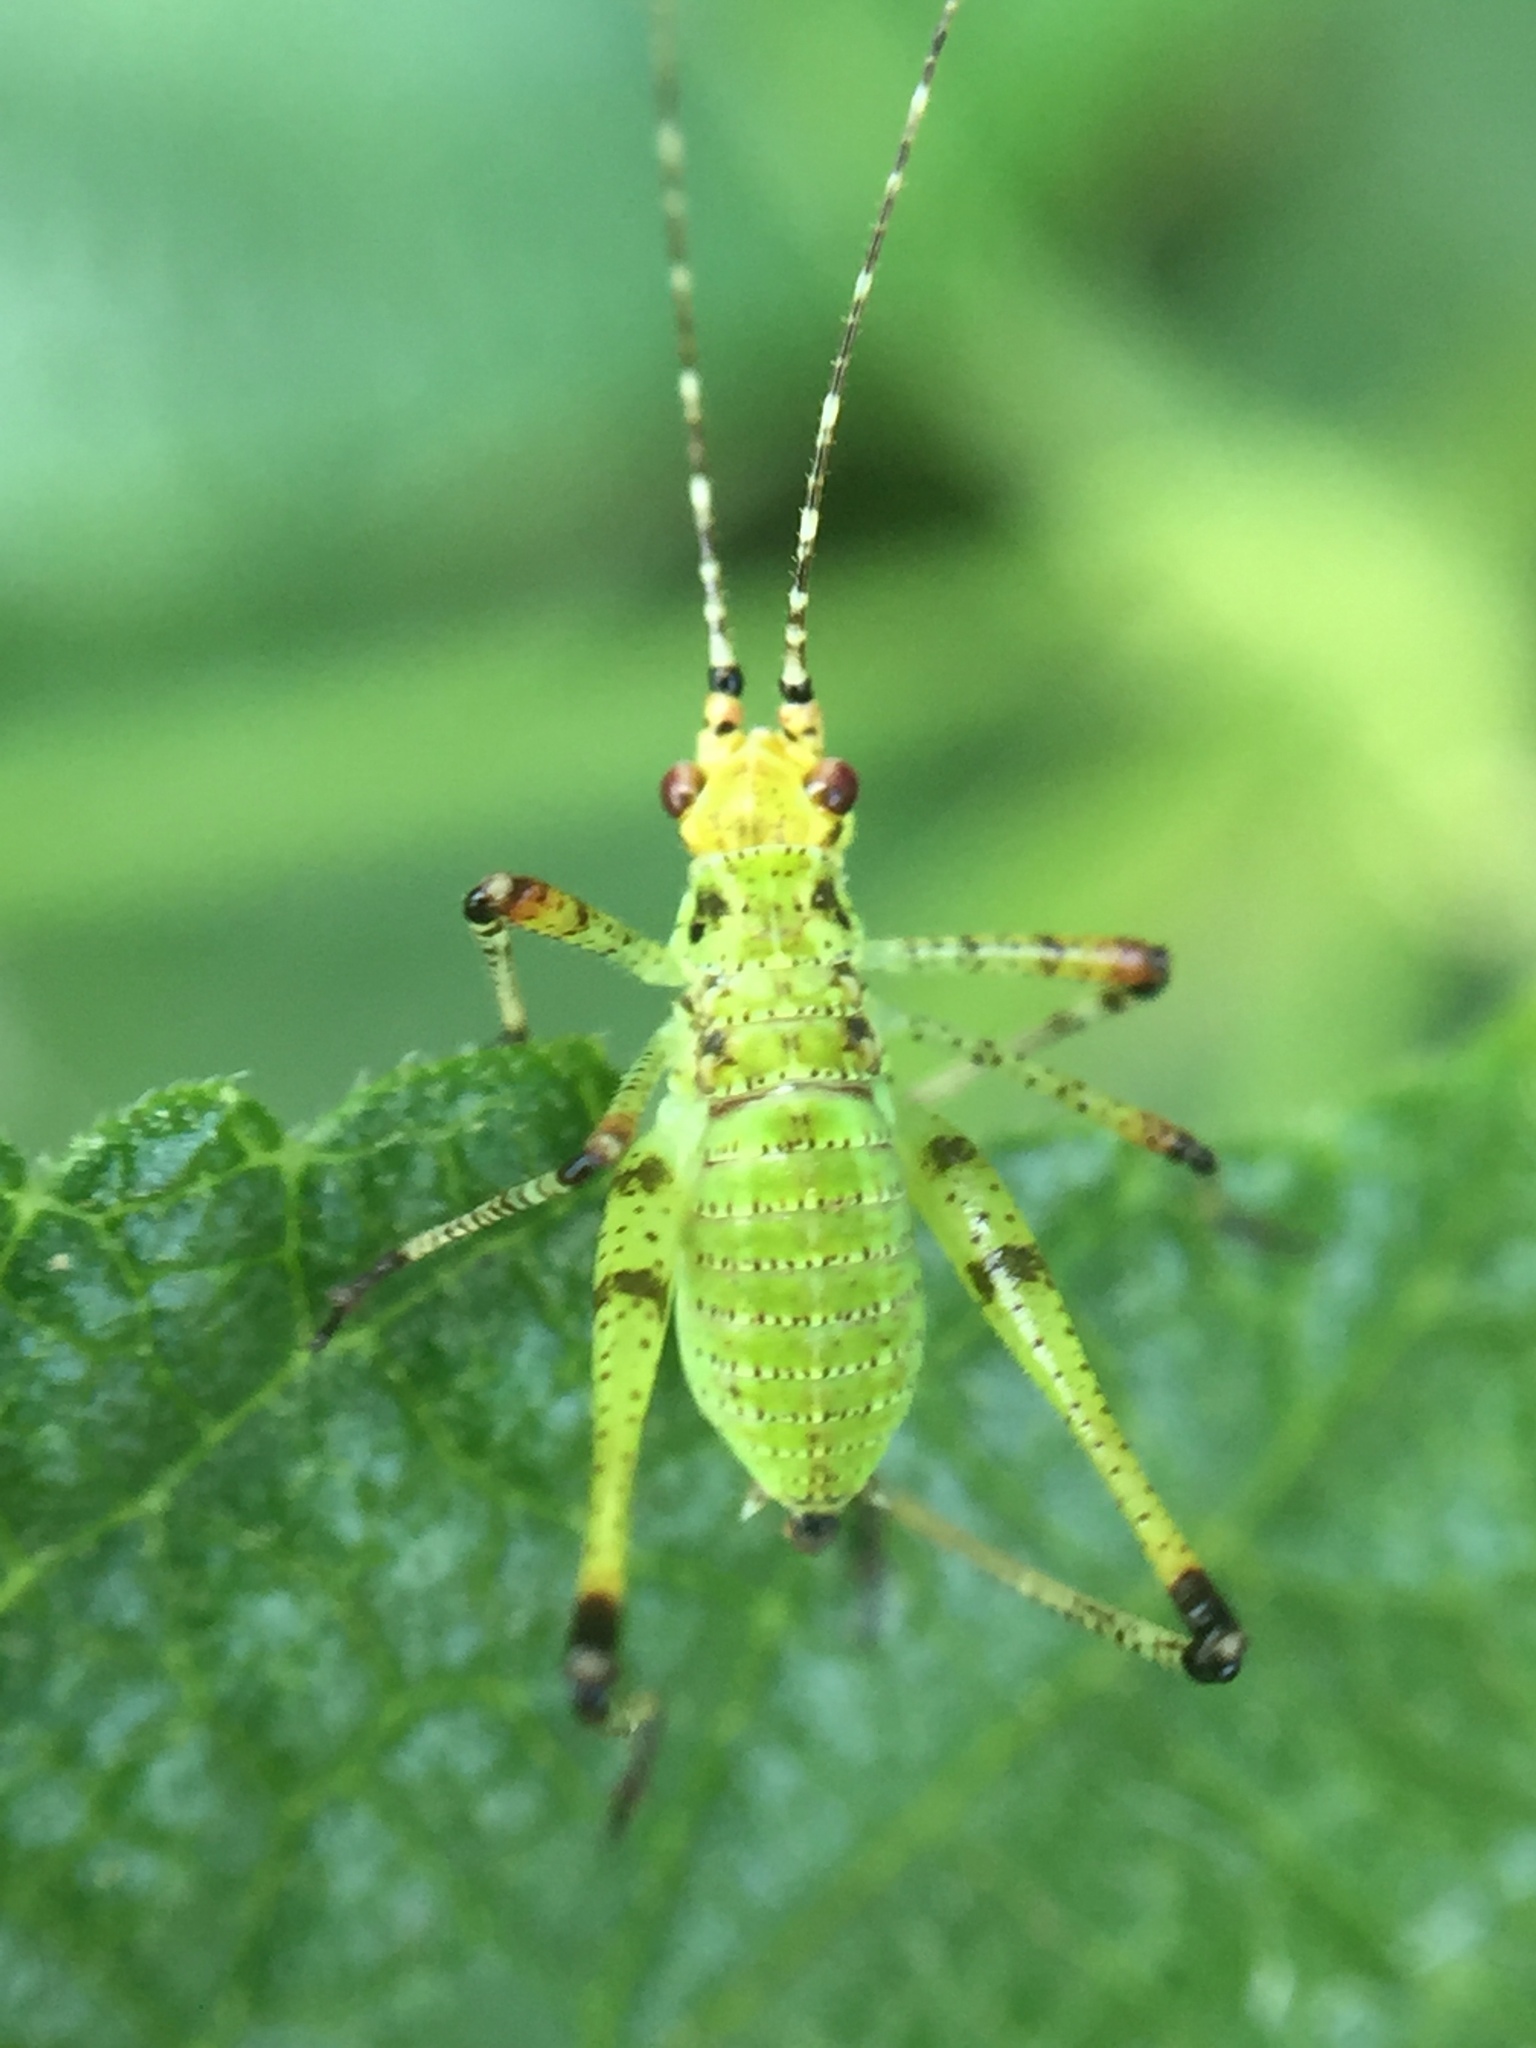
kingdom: Animalia
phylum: Arthropoda
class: Insecta
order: Orthoptera
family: Tettigoniidae
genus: Phaneroptera
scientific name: Phaneroptera nana
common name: Southern sickle bush-cricket
